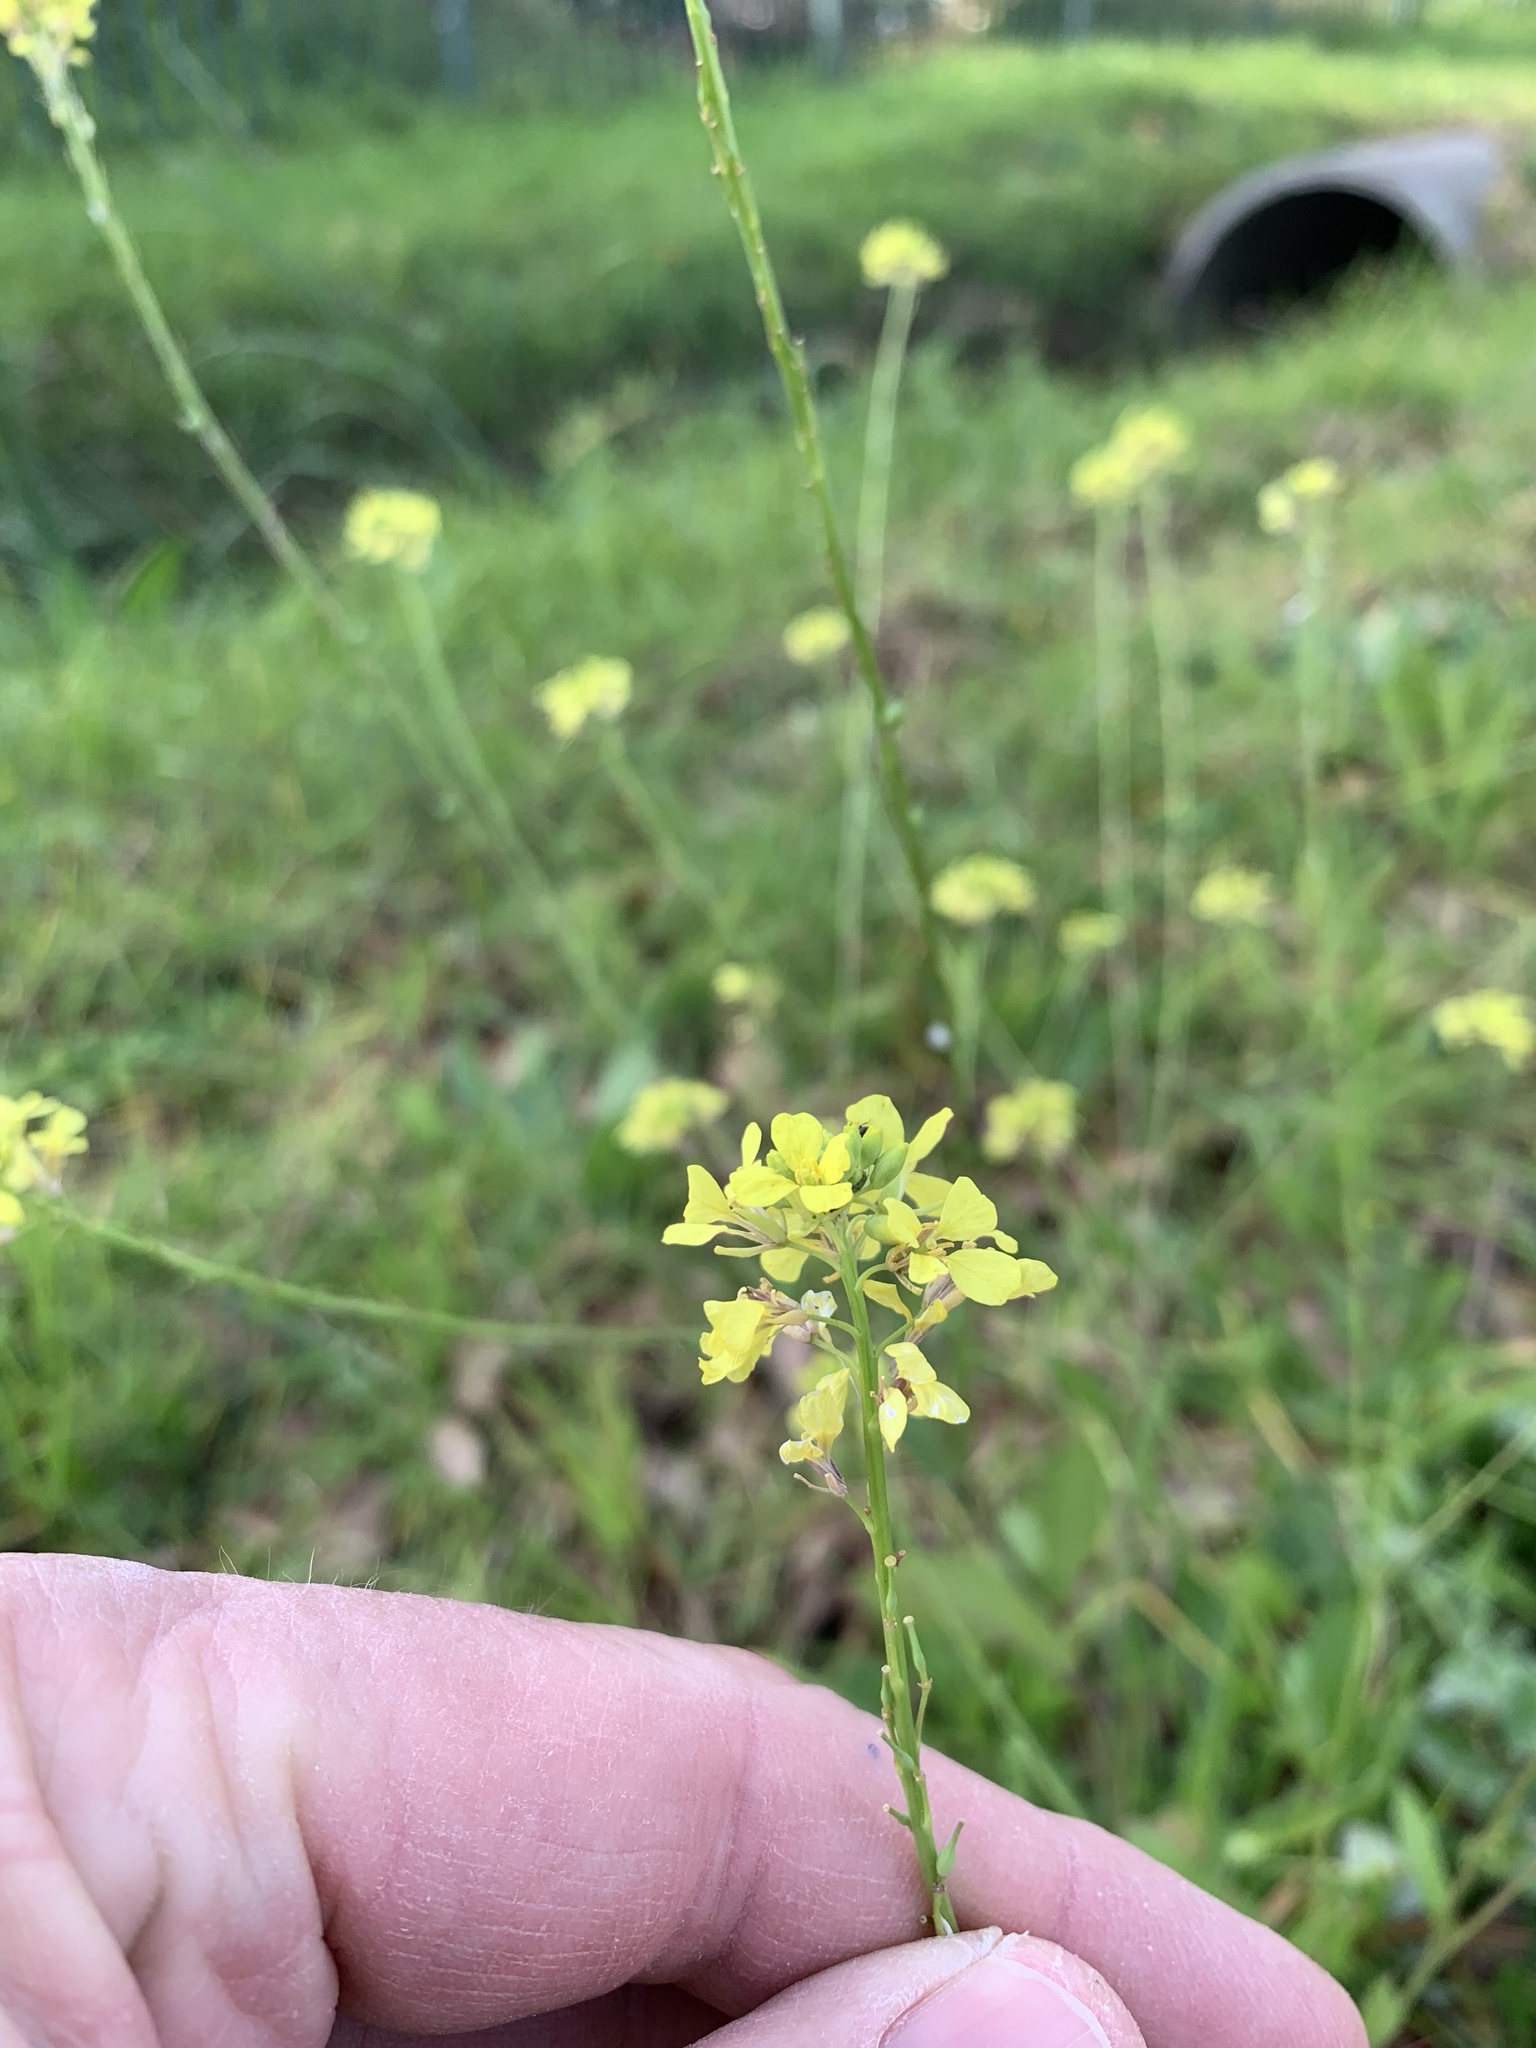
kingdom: Plantae
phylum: Tracheophyta
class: Magnoliopsida
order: Brassicales
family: Brassicaceae
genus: Rapistrum
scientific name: Rapistrum rugosum
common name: Annual bastardcabbage
